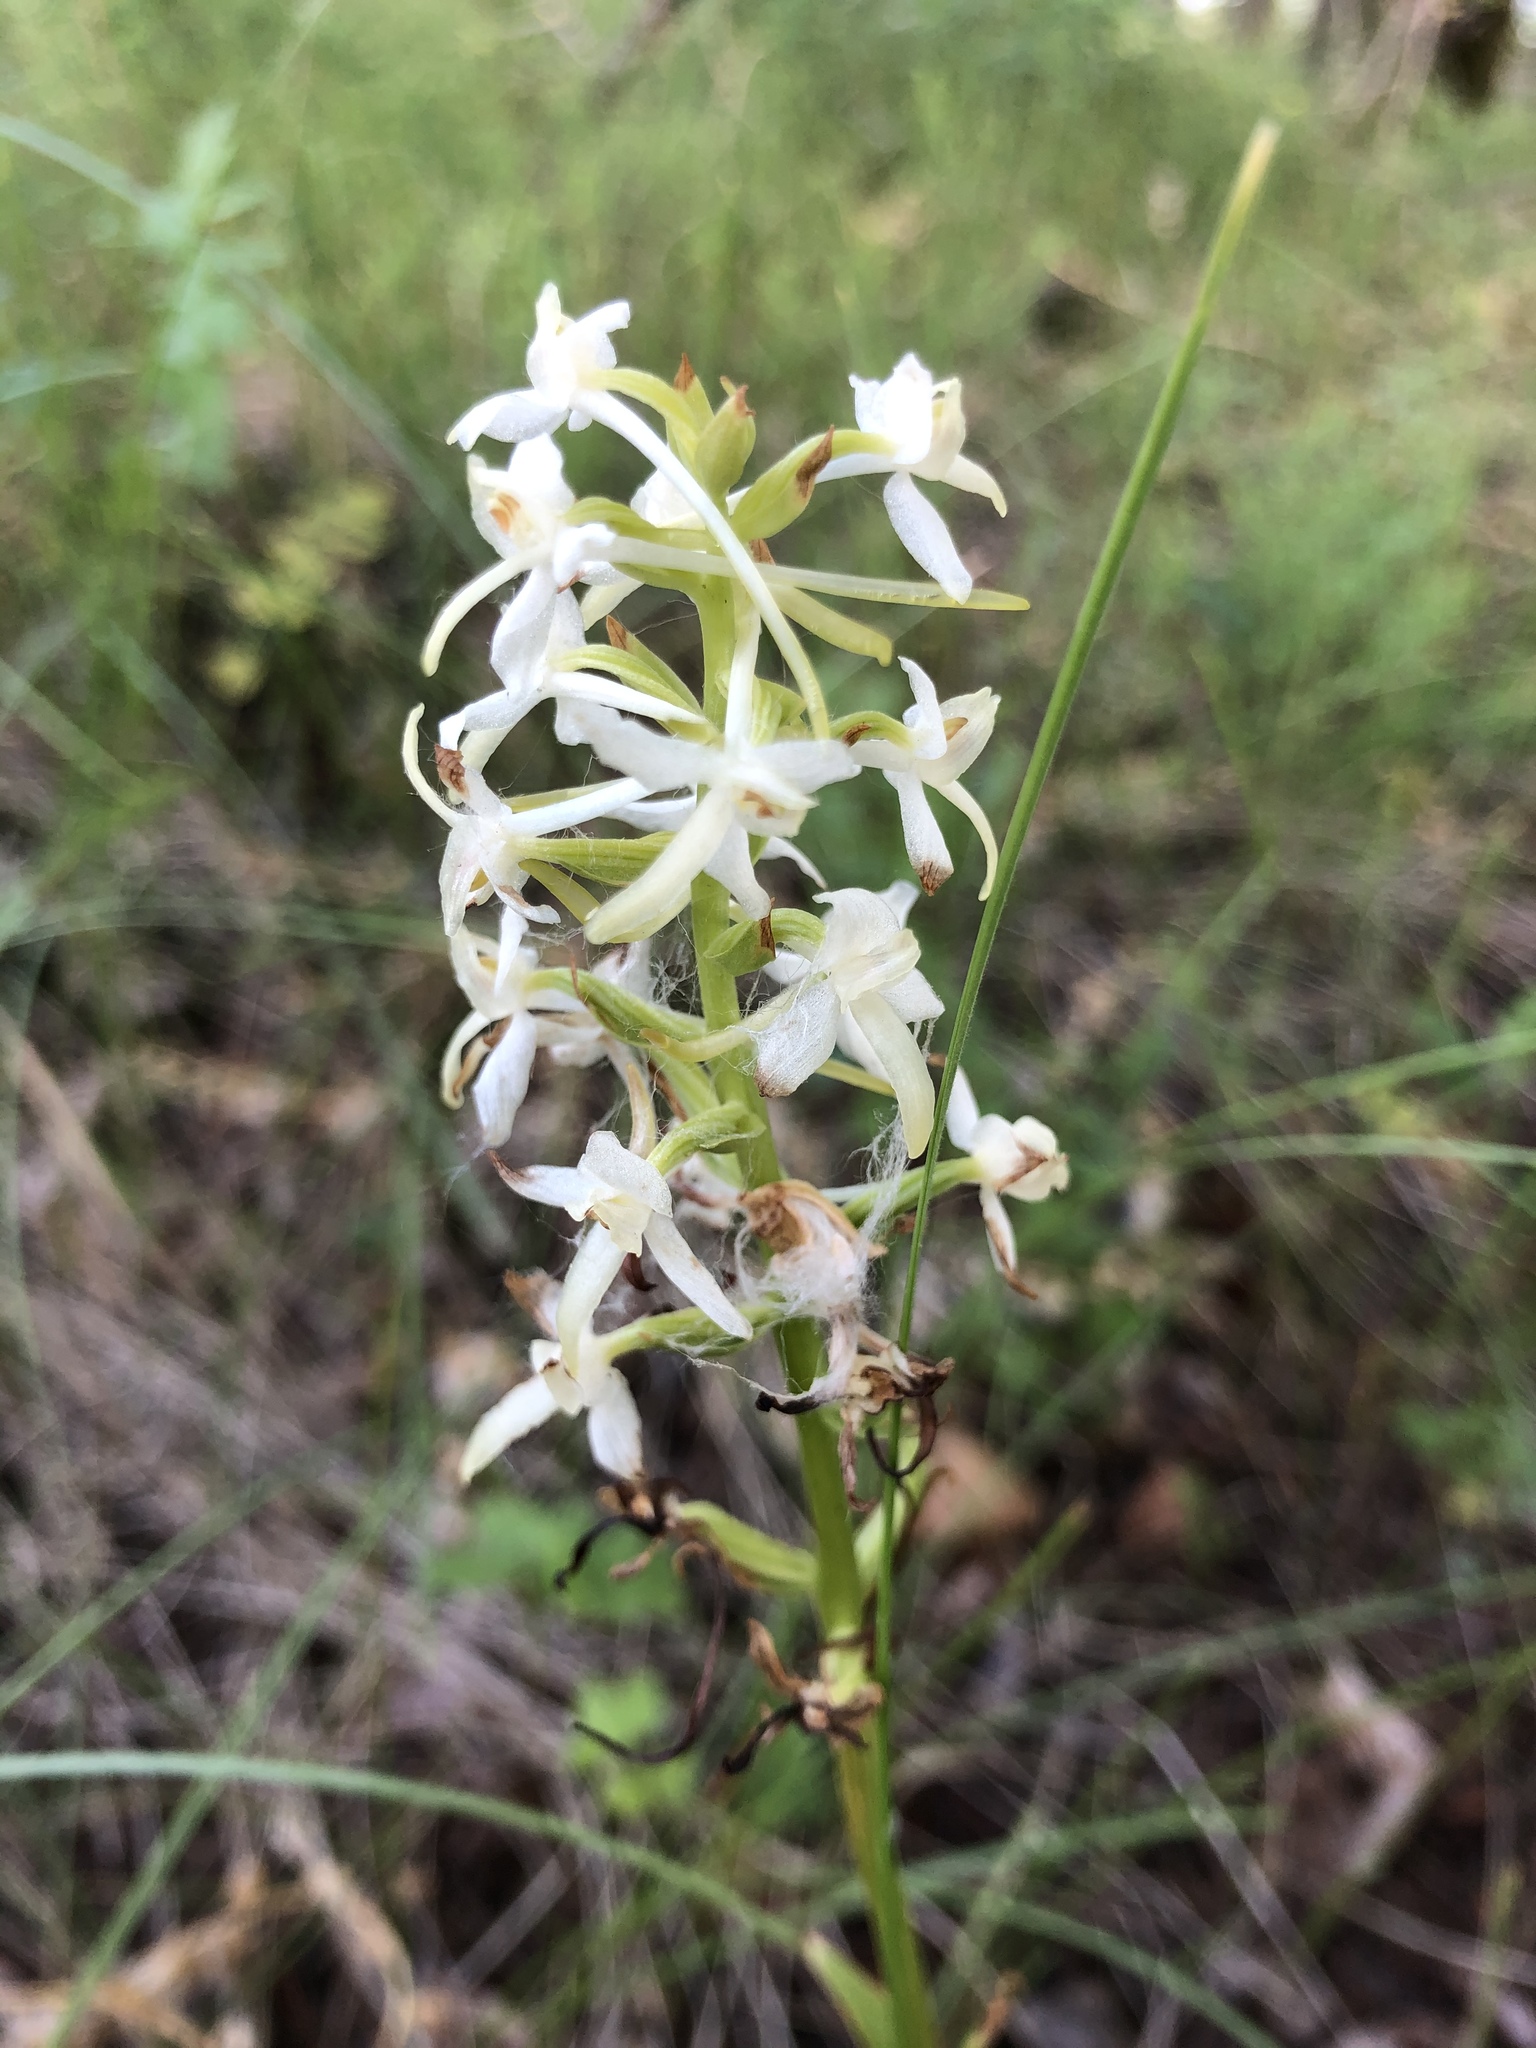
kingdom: Plantae
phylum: Tracheophyta
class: Liliopsida
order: Asparagales
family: Orchidaceae
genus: Platanthera
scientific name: Platanthera bifolia
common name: Lesser butterfly-orchid
